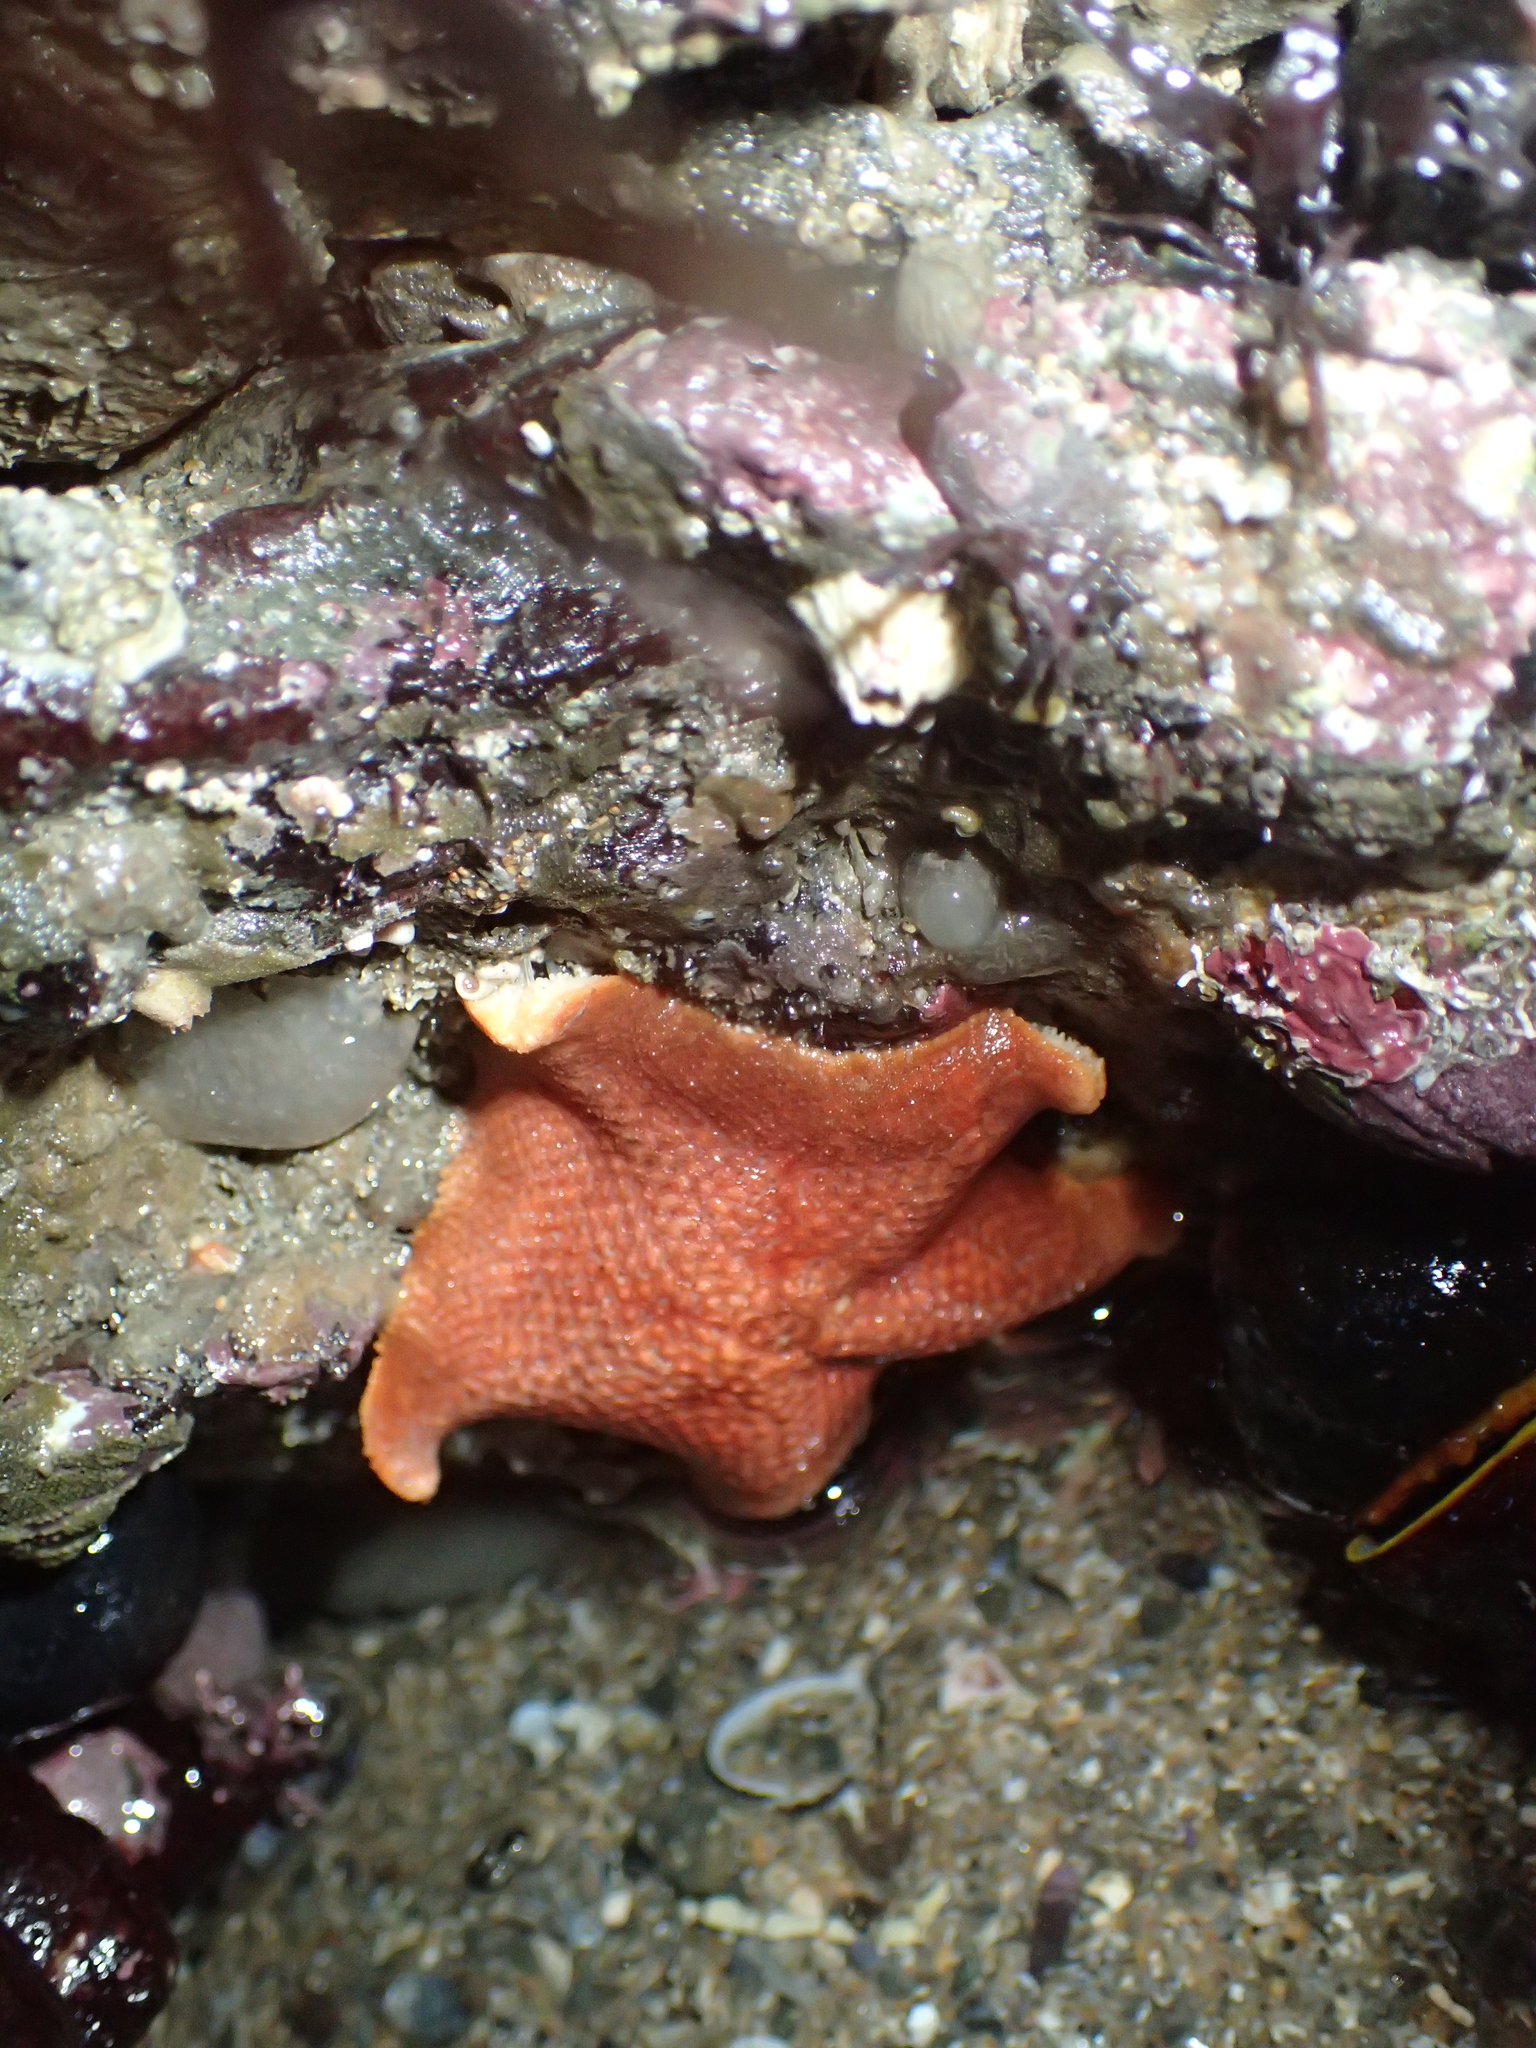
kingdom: Animalia
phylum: Echinodermata
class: Asteroidea
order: Valvatida
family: Asterinidae
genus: Patiria
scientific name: Patiria miniata
